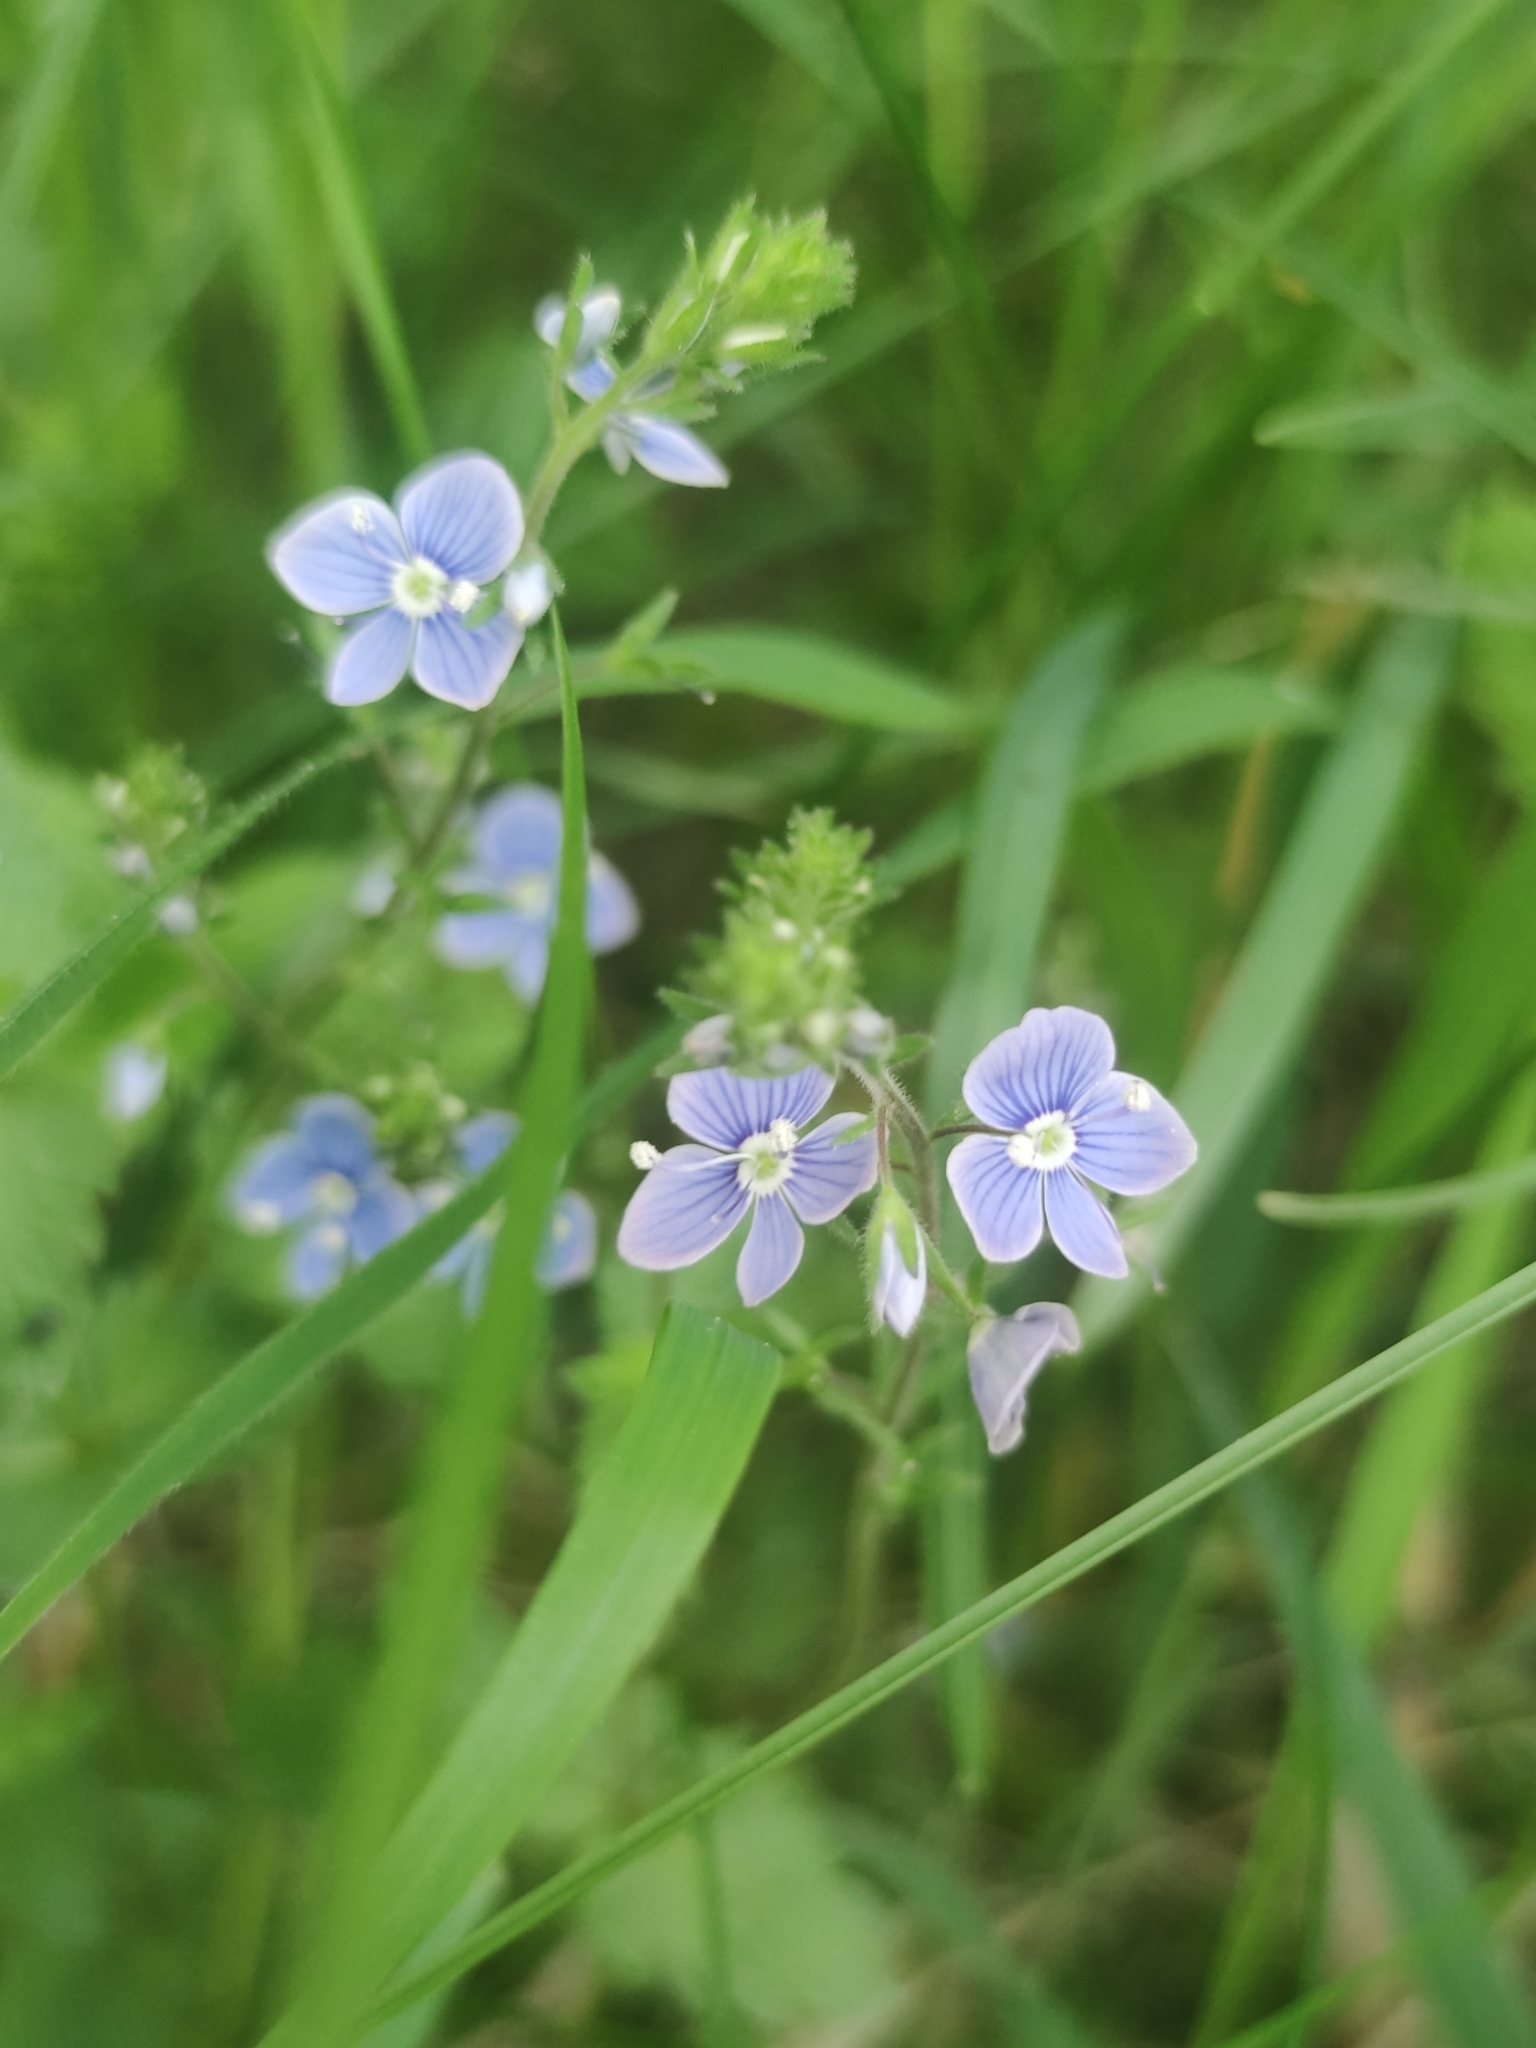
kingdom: Plantae
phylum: Tracheophyta
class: Magnoliopsida
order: Lamiales
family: Plantaginaceae
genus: Veronica
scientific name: Veronica chamaedrys
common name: Germander speedwell
